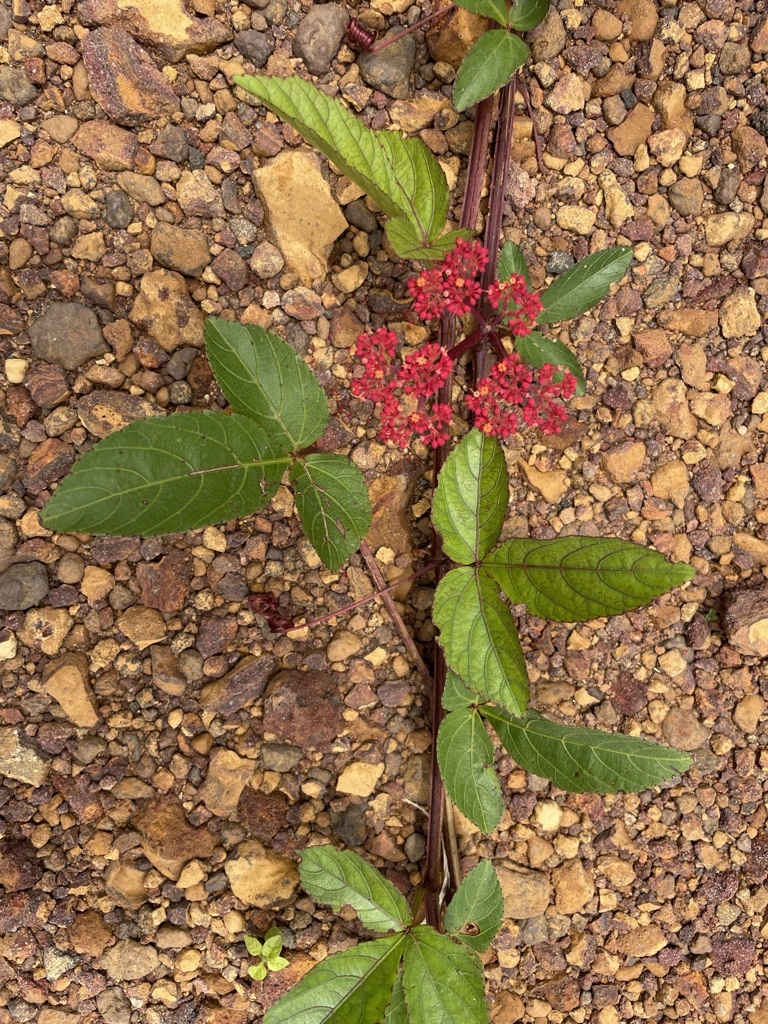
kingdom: Plantae
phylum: Tracheophyta
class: Magnoliopsida
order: Vitales
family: Vitaceae
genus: Cissus
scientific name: Cissus erosa
